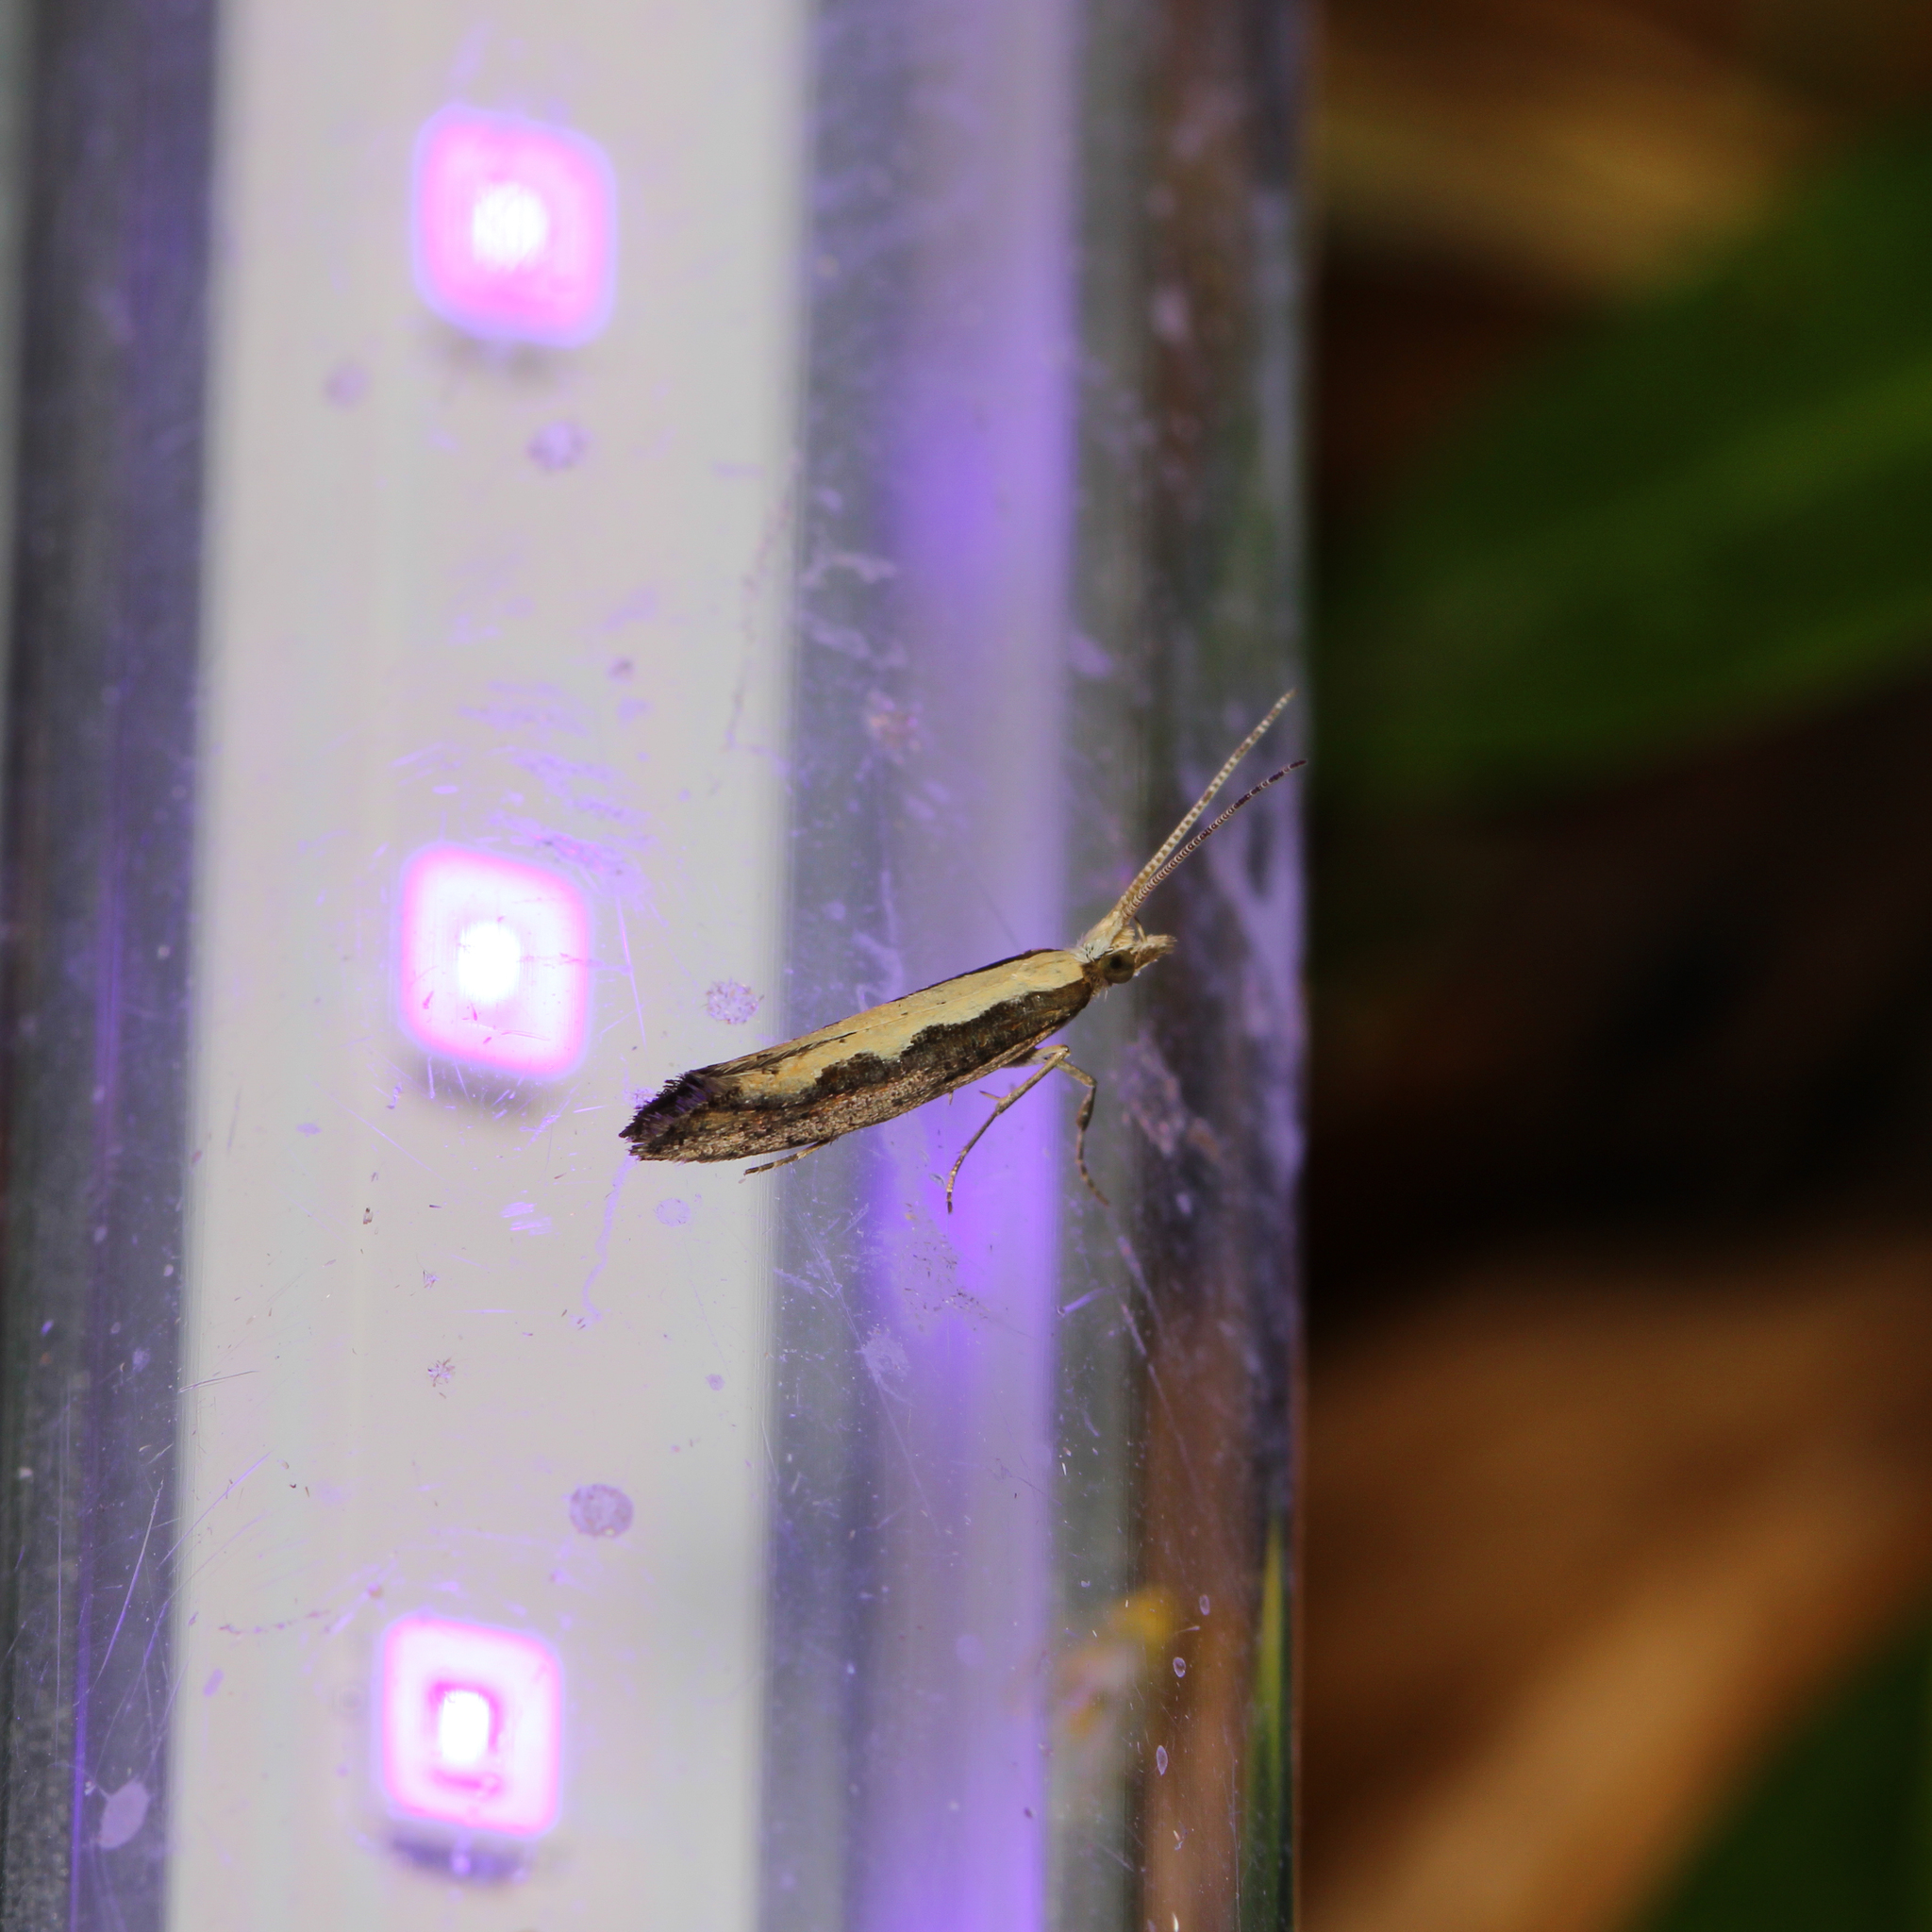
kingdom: Animalia
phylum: Arthropoda
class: Insecta
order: Lepidoptera
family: Plutellidae
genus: Plutella
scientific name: Plutella xylostella
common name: Diamond-back moth
